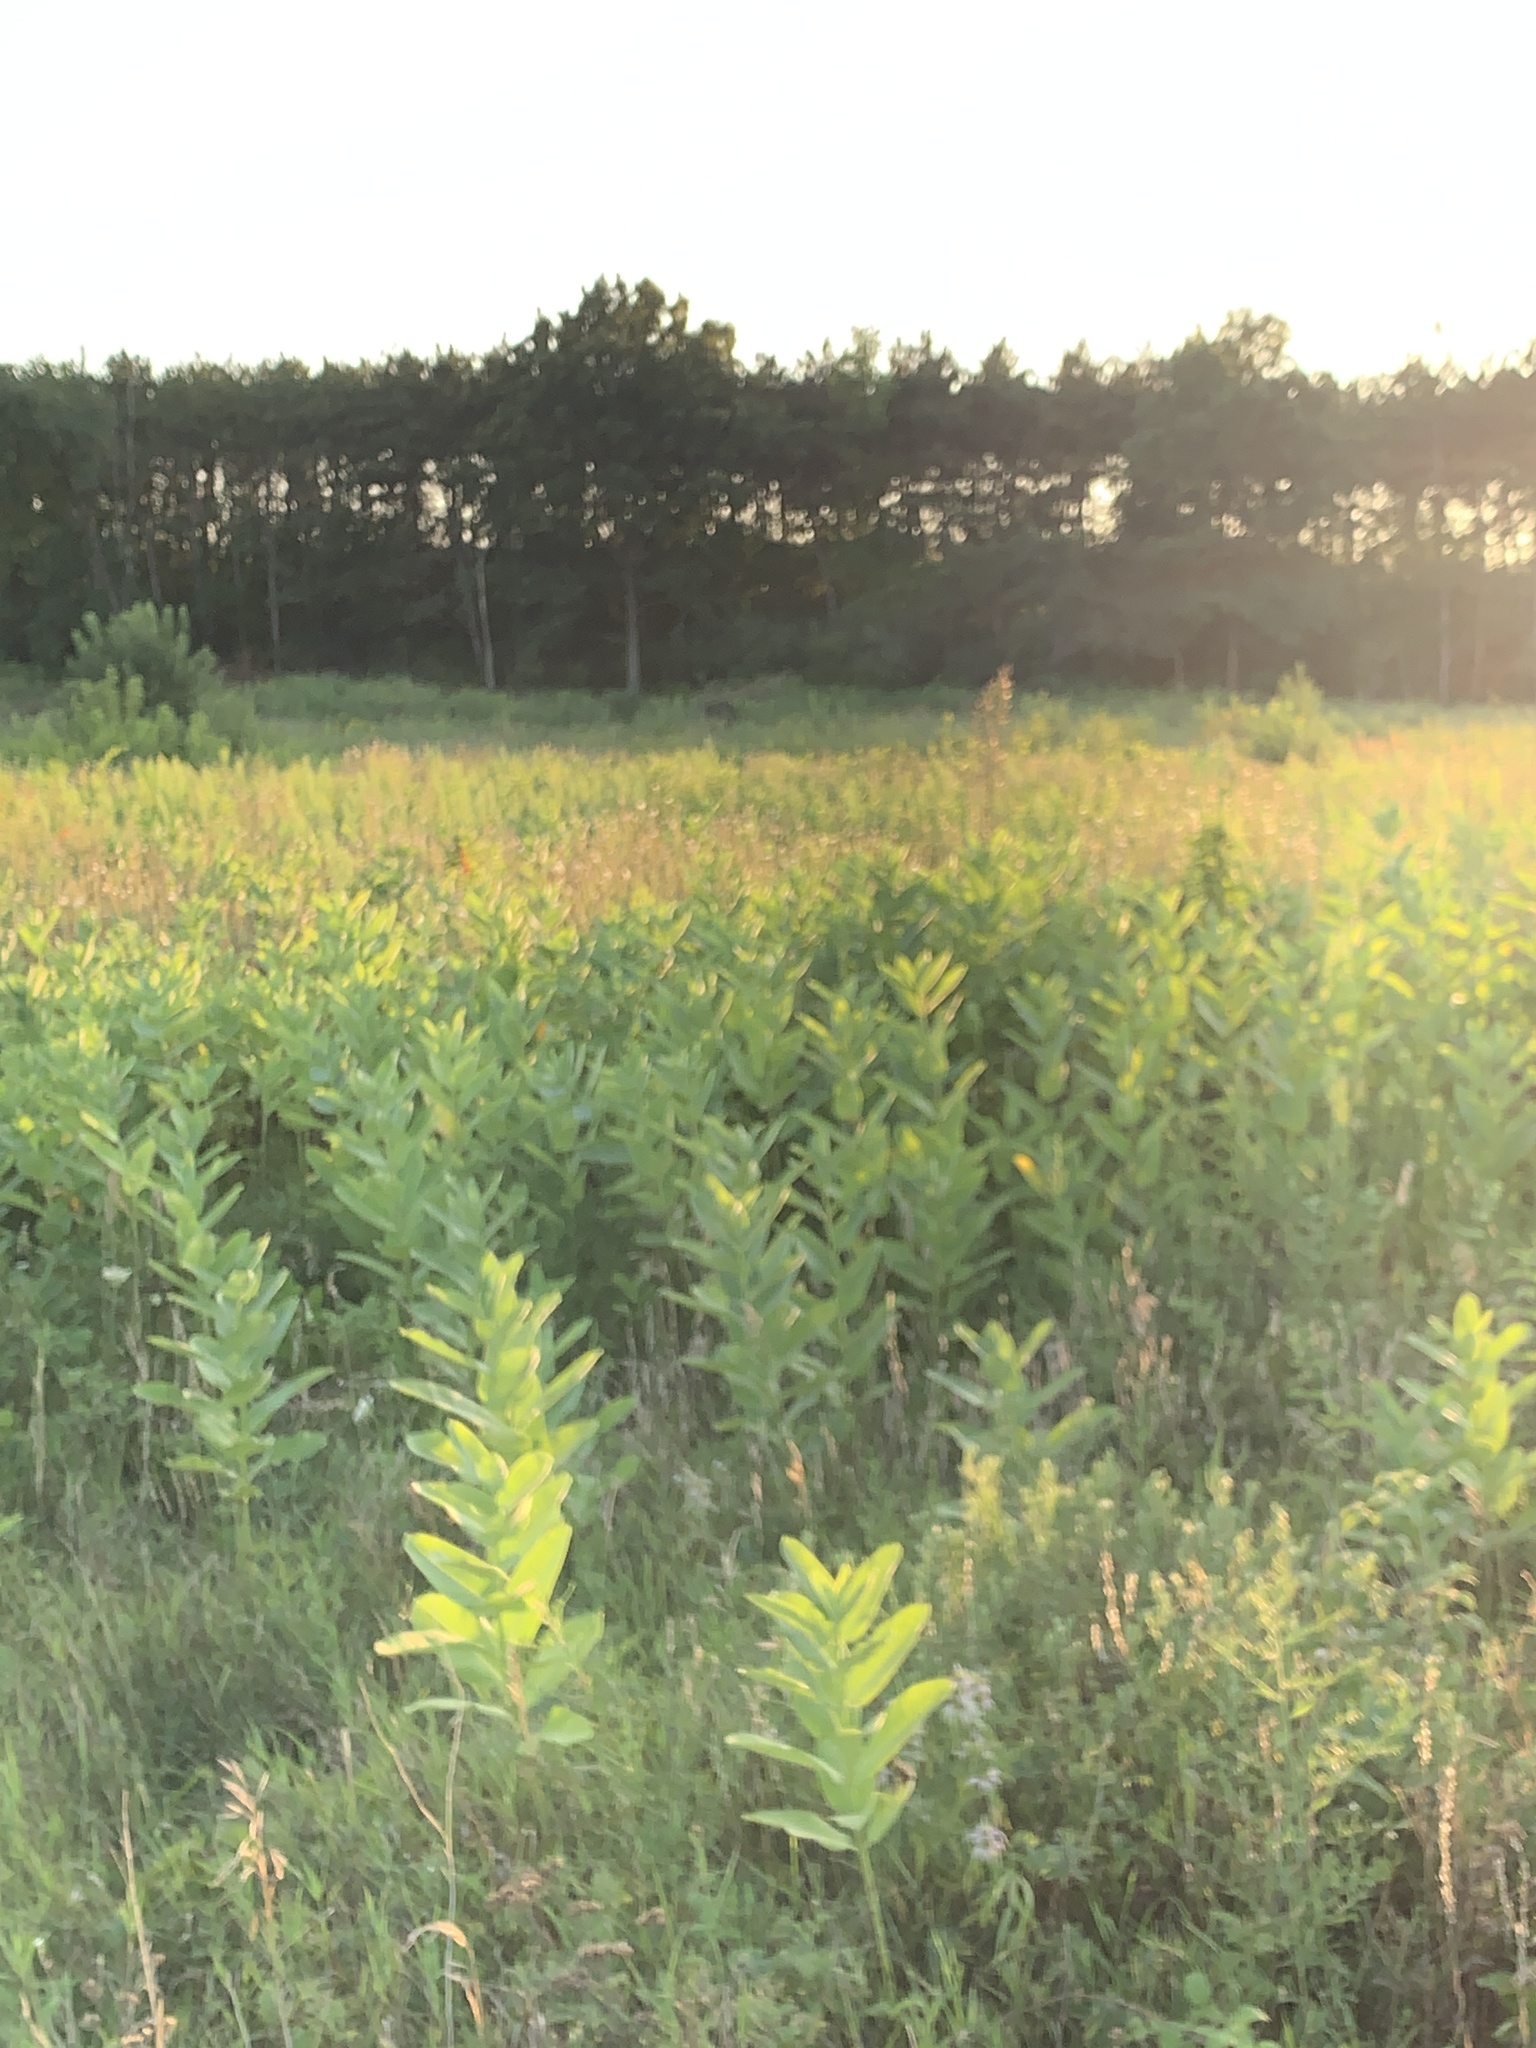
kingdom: Plantae
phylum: Tracheophyta
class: Magnoliopsida
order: Gentianales
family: Apocynaceae
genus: Asclepias
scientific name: Asclepias syriaca
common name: Common milkweed
